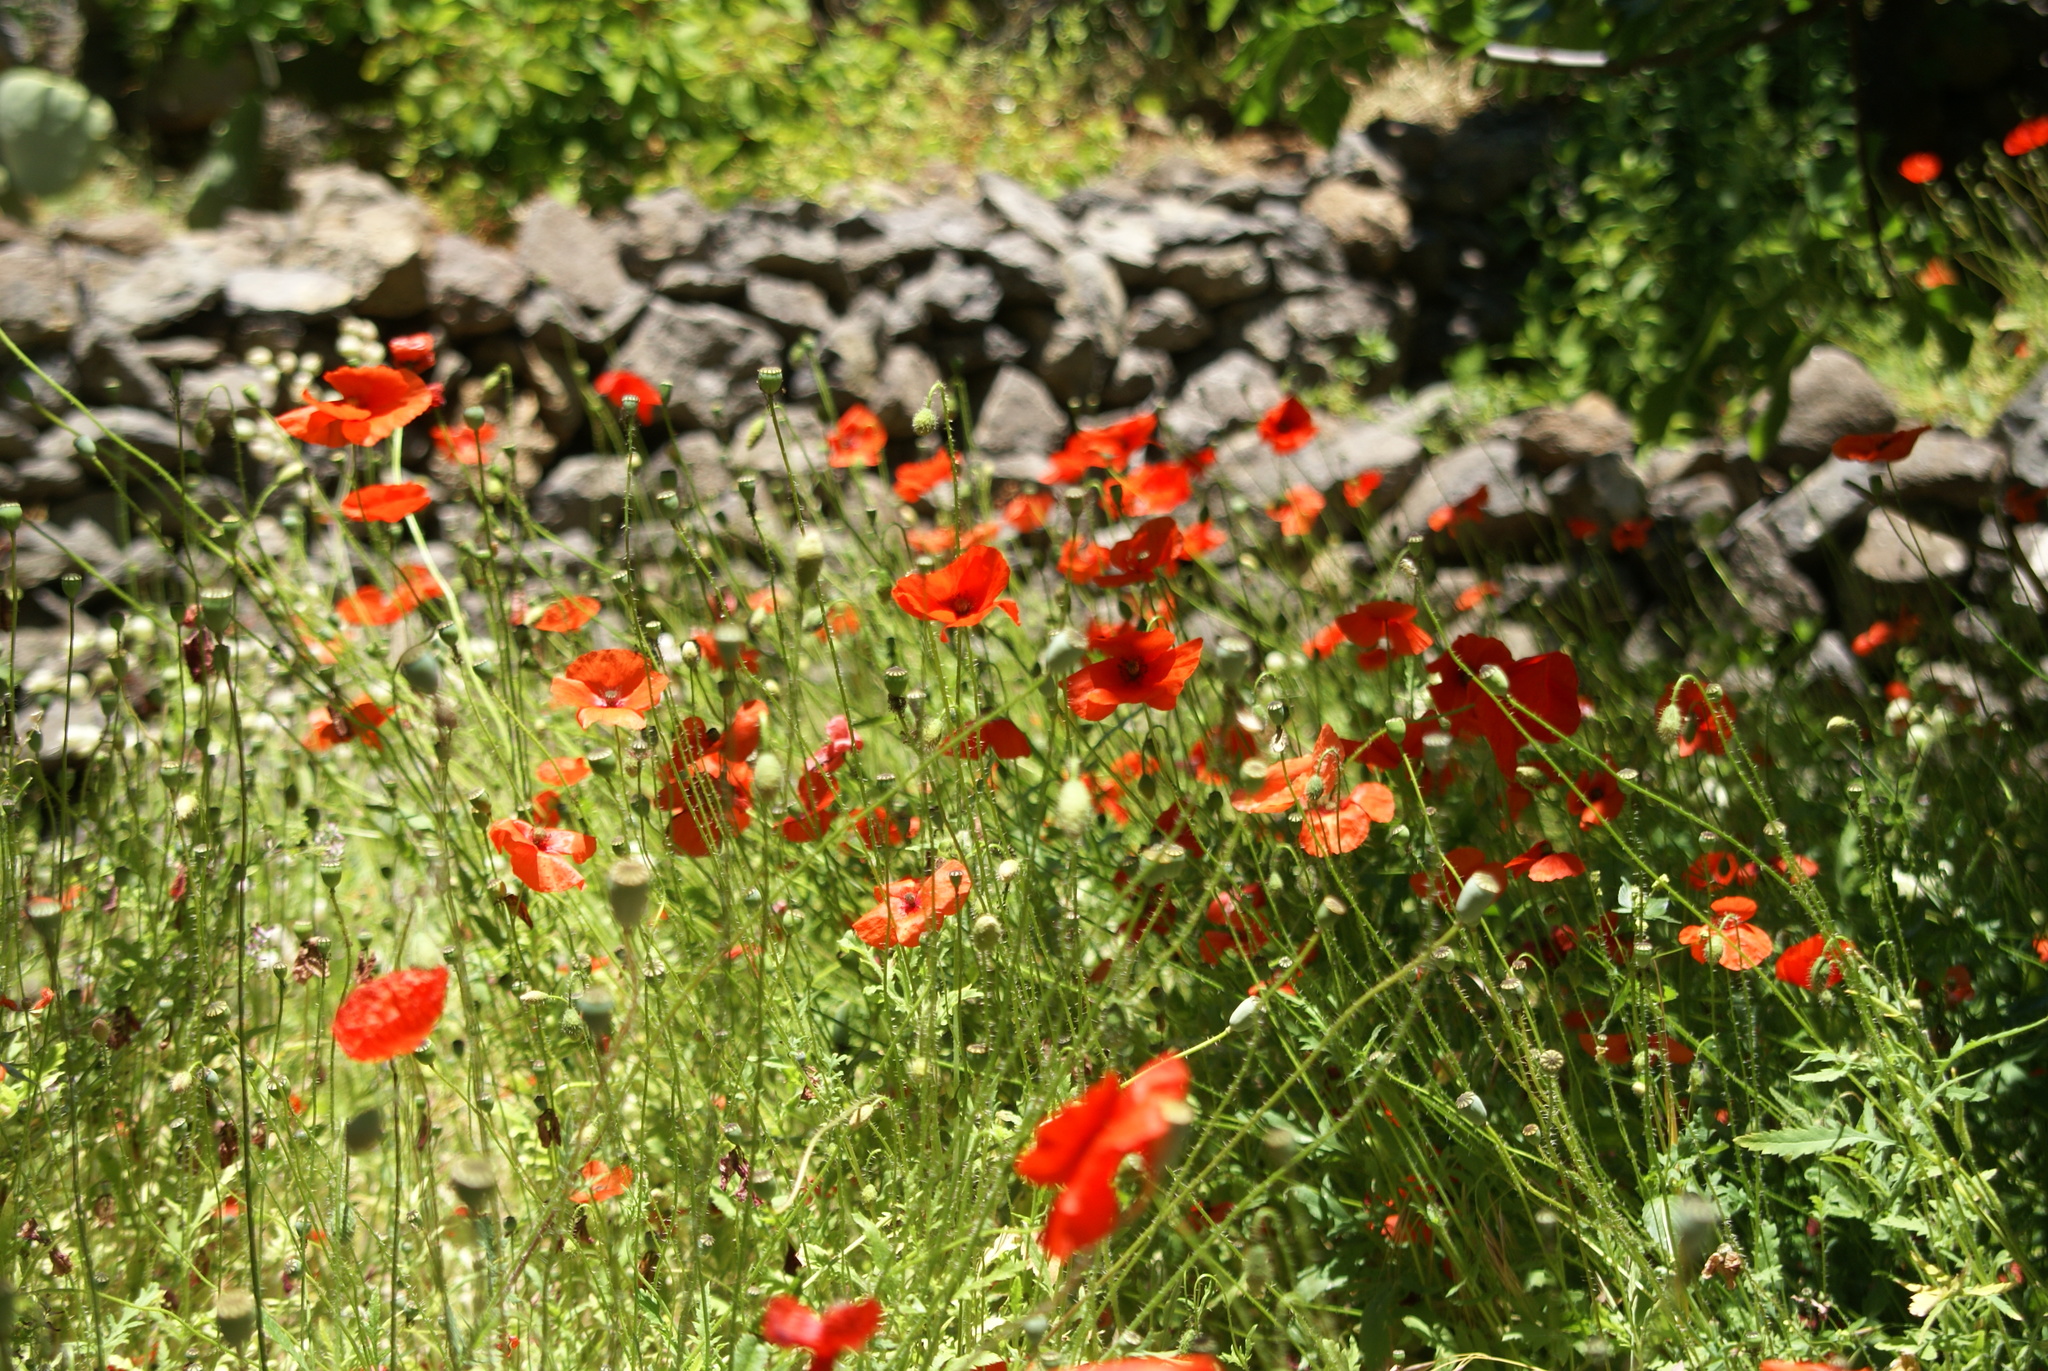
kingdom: Plantae
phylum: Tracheophyta
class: Magnoliopsida
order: Ranunculales
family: Papaveraceae
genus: Papaver
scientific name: Papaver rhoeas
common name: Corn poppy
